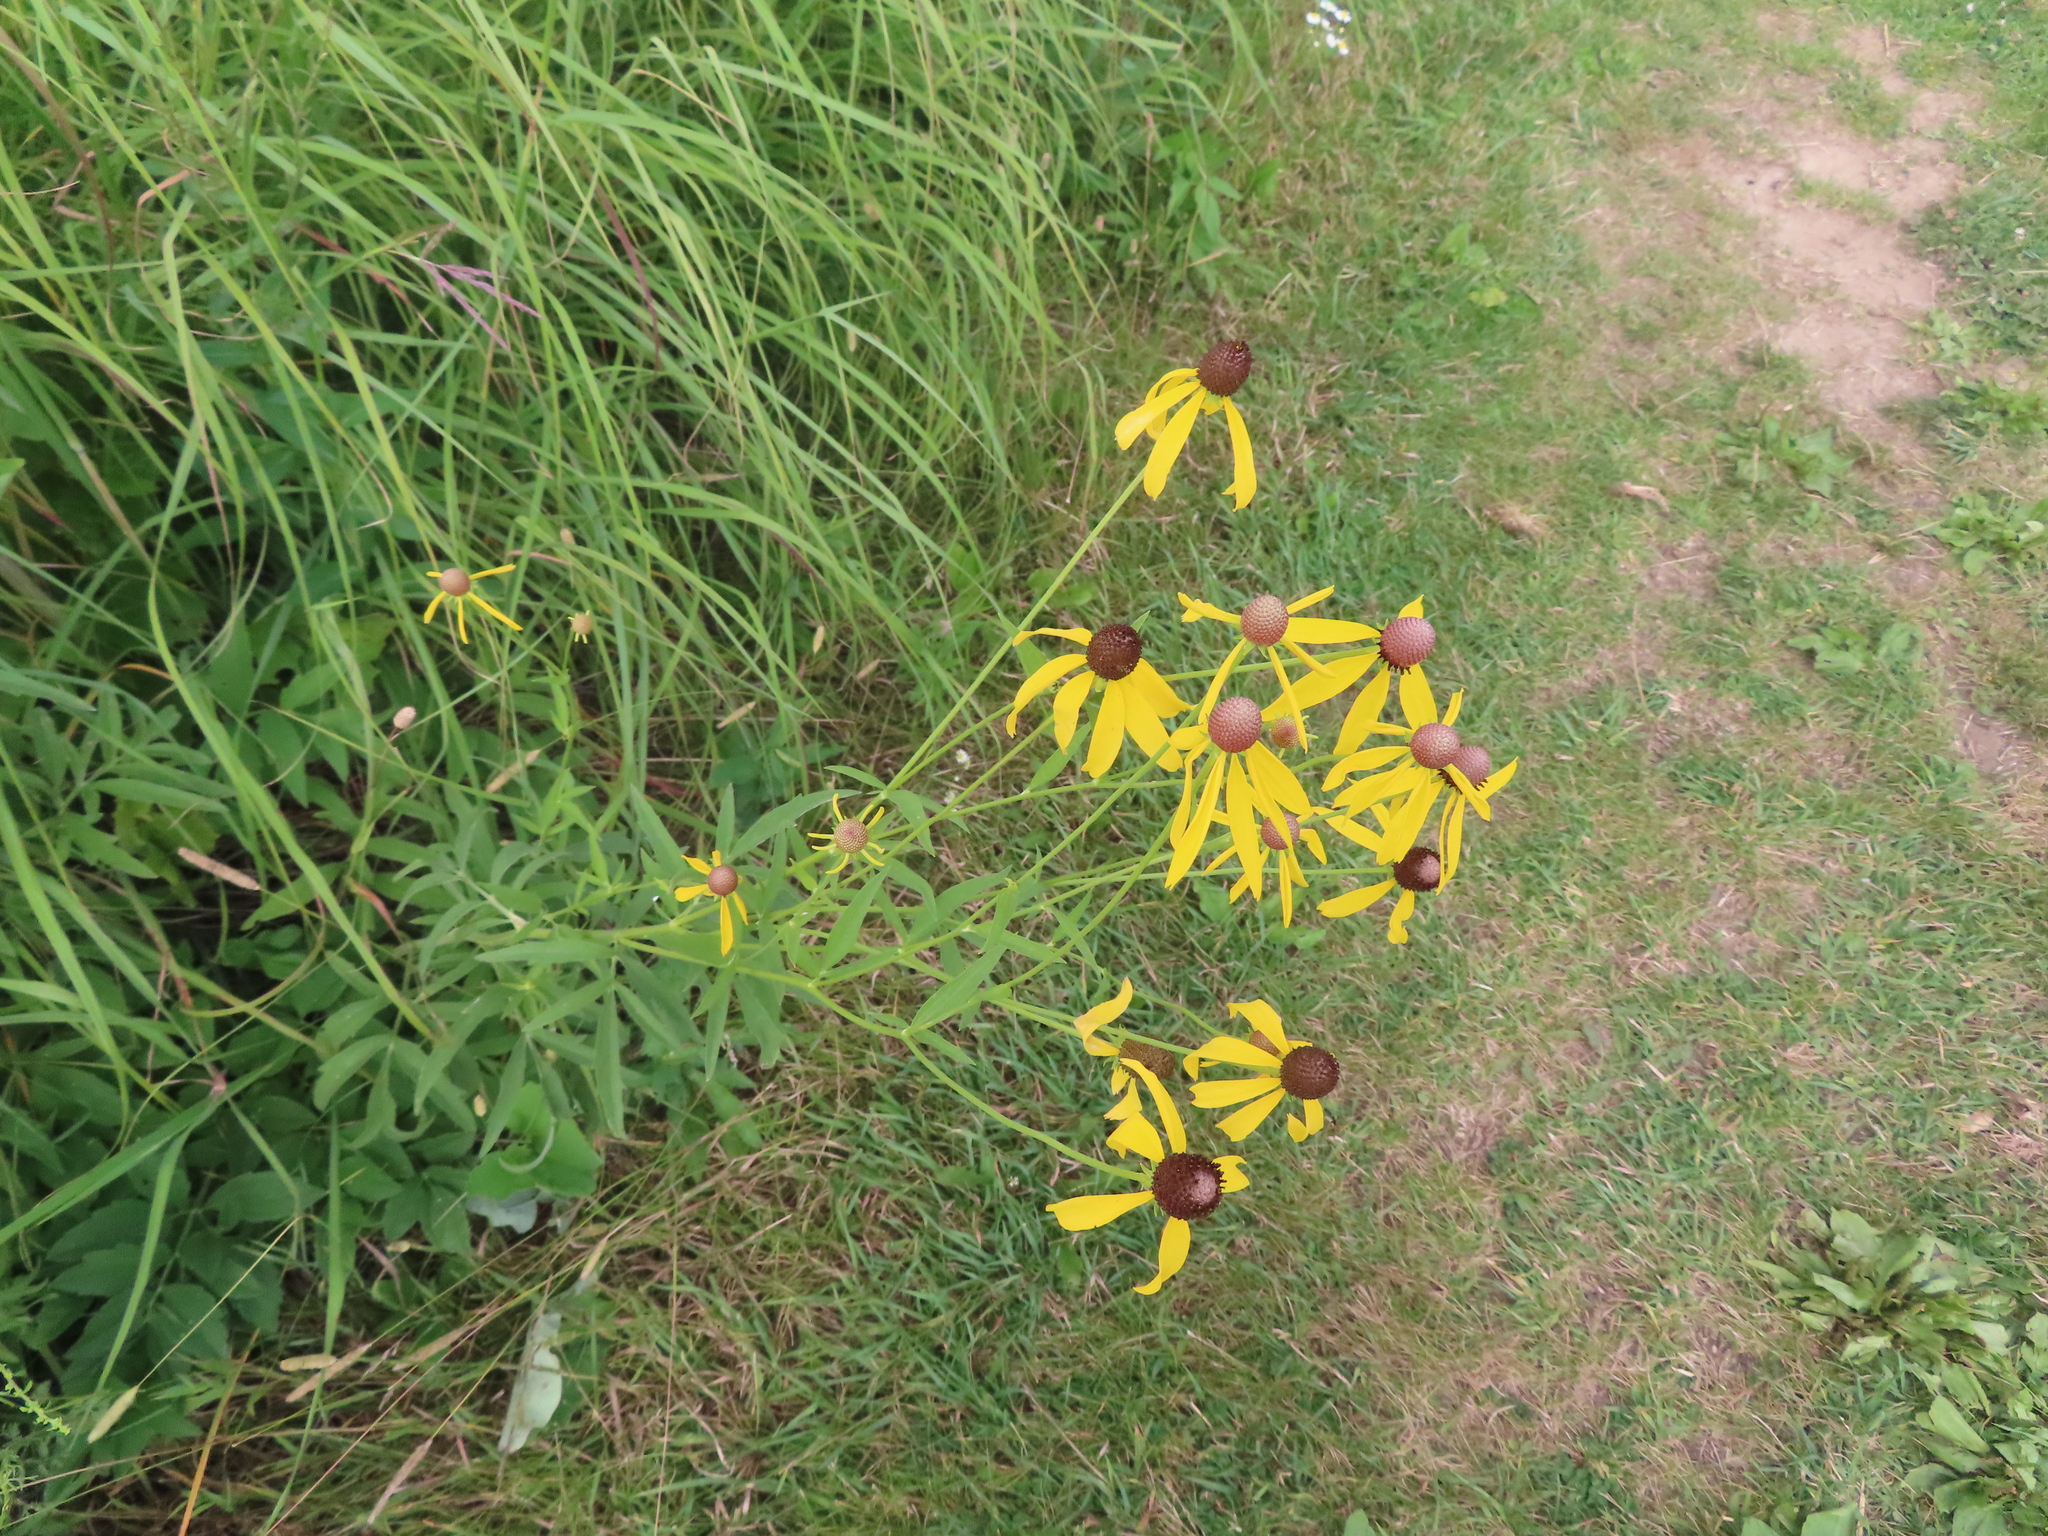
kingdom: Plantae
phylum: Tracheophyta
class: Magnoliopsida
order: Asterales
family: Asteraceae
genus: Ratibida
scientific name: Ratibida pinnata
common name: Drooping prairie-coneflower
